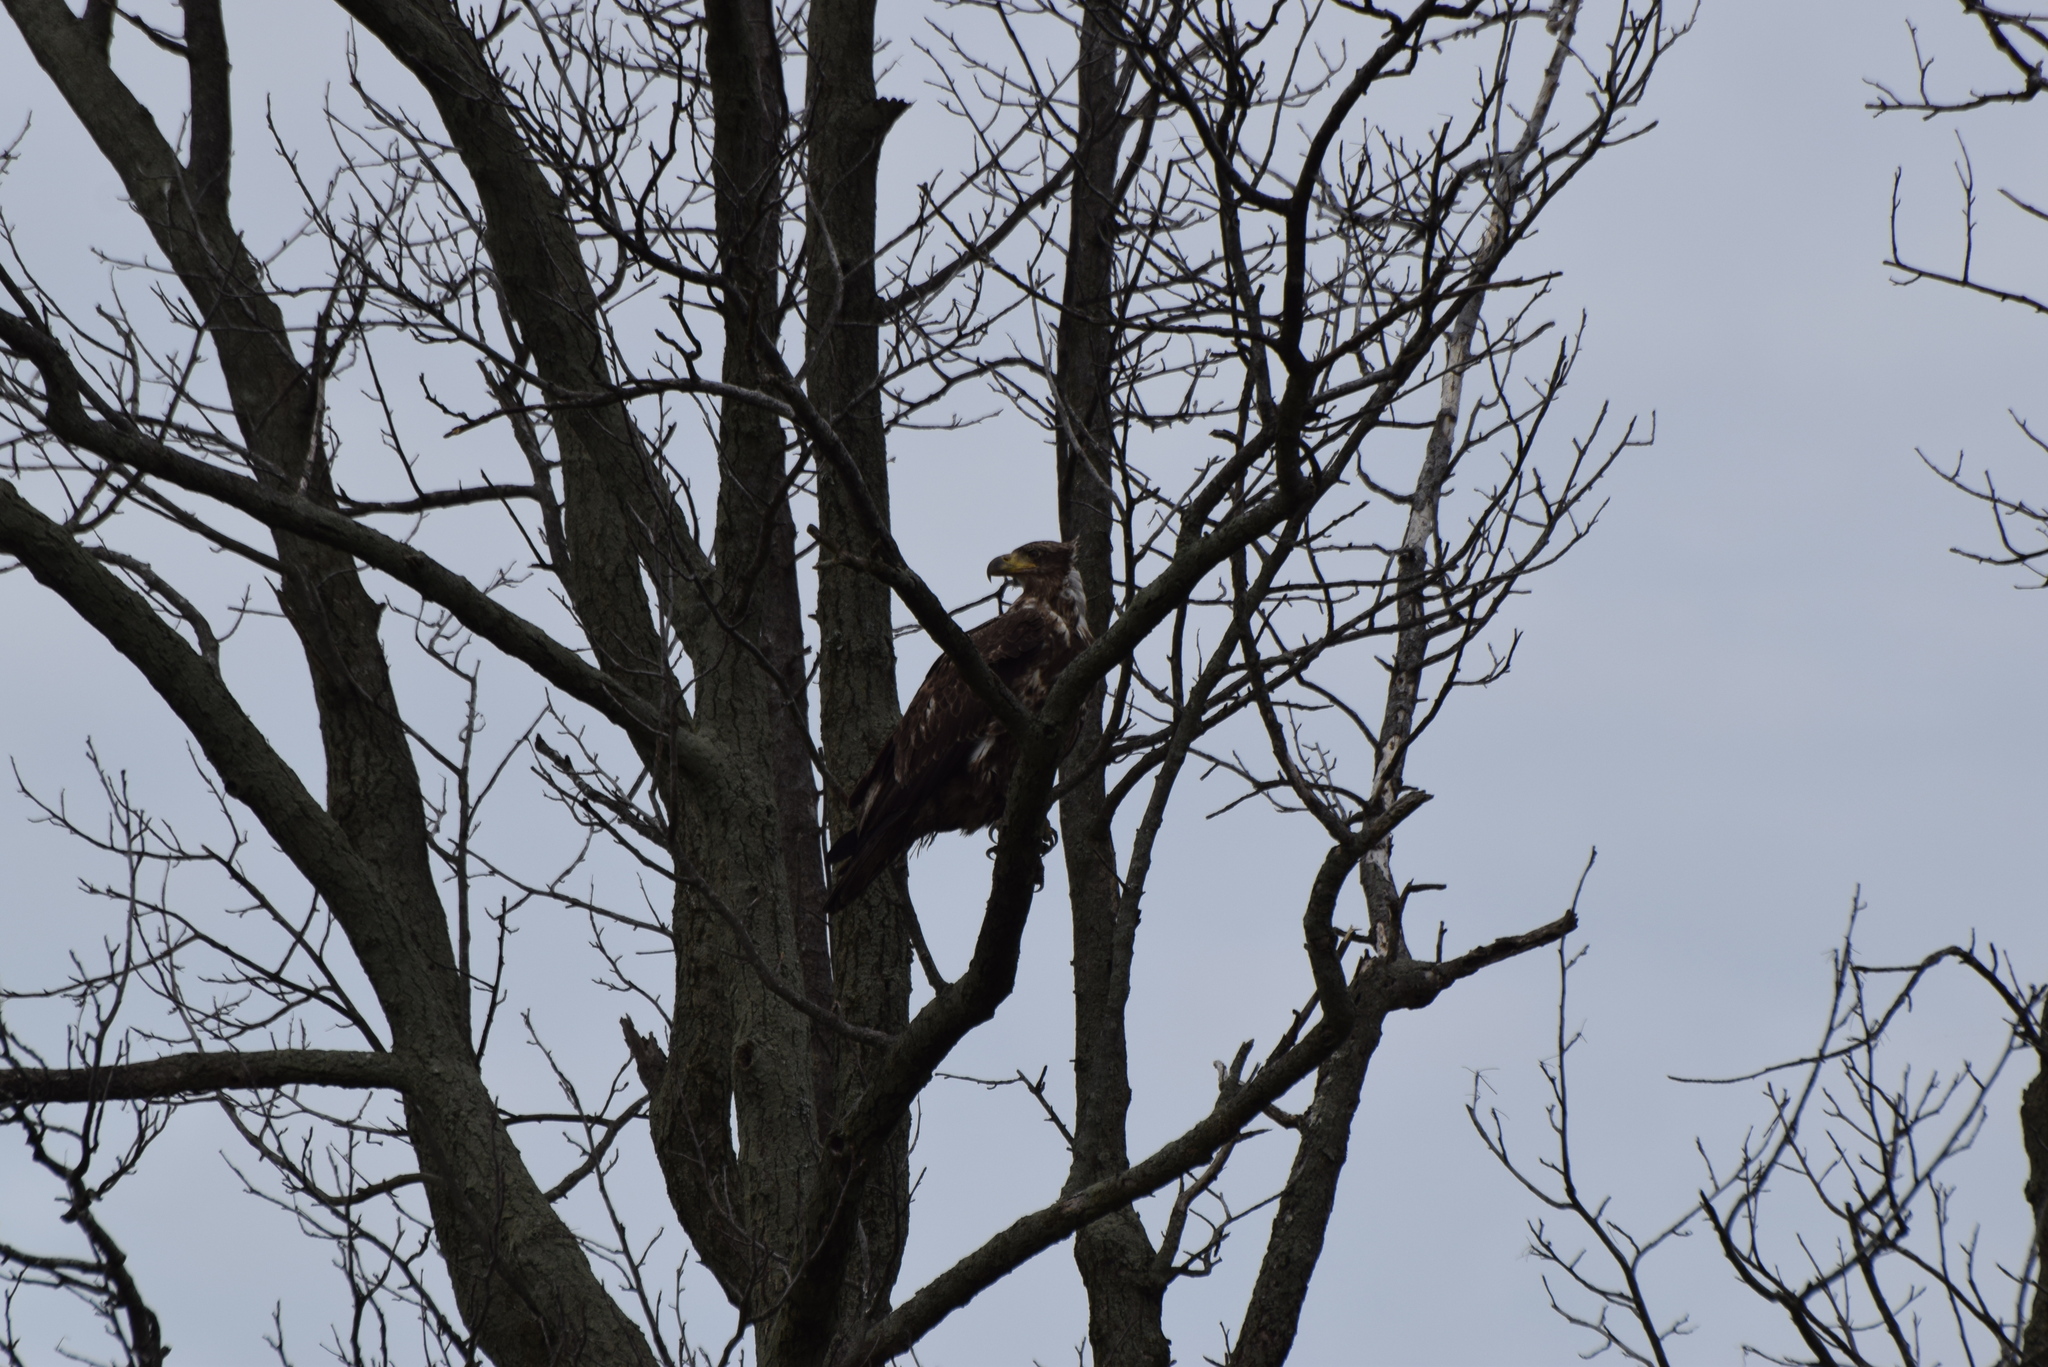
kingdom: Animalia
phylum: Chordata
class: Aves
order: Accipitriformes
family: Accipitridae
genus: Haliaeetus
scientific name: Haliaeetus leucocephalus
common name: Bald eagle
